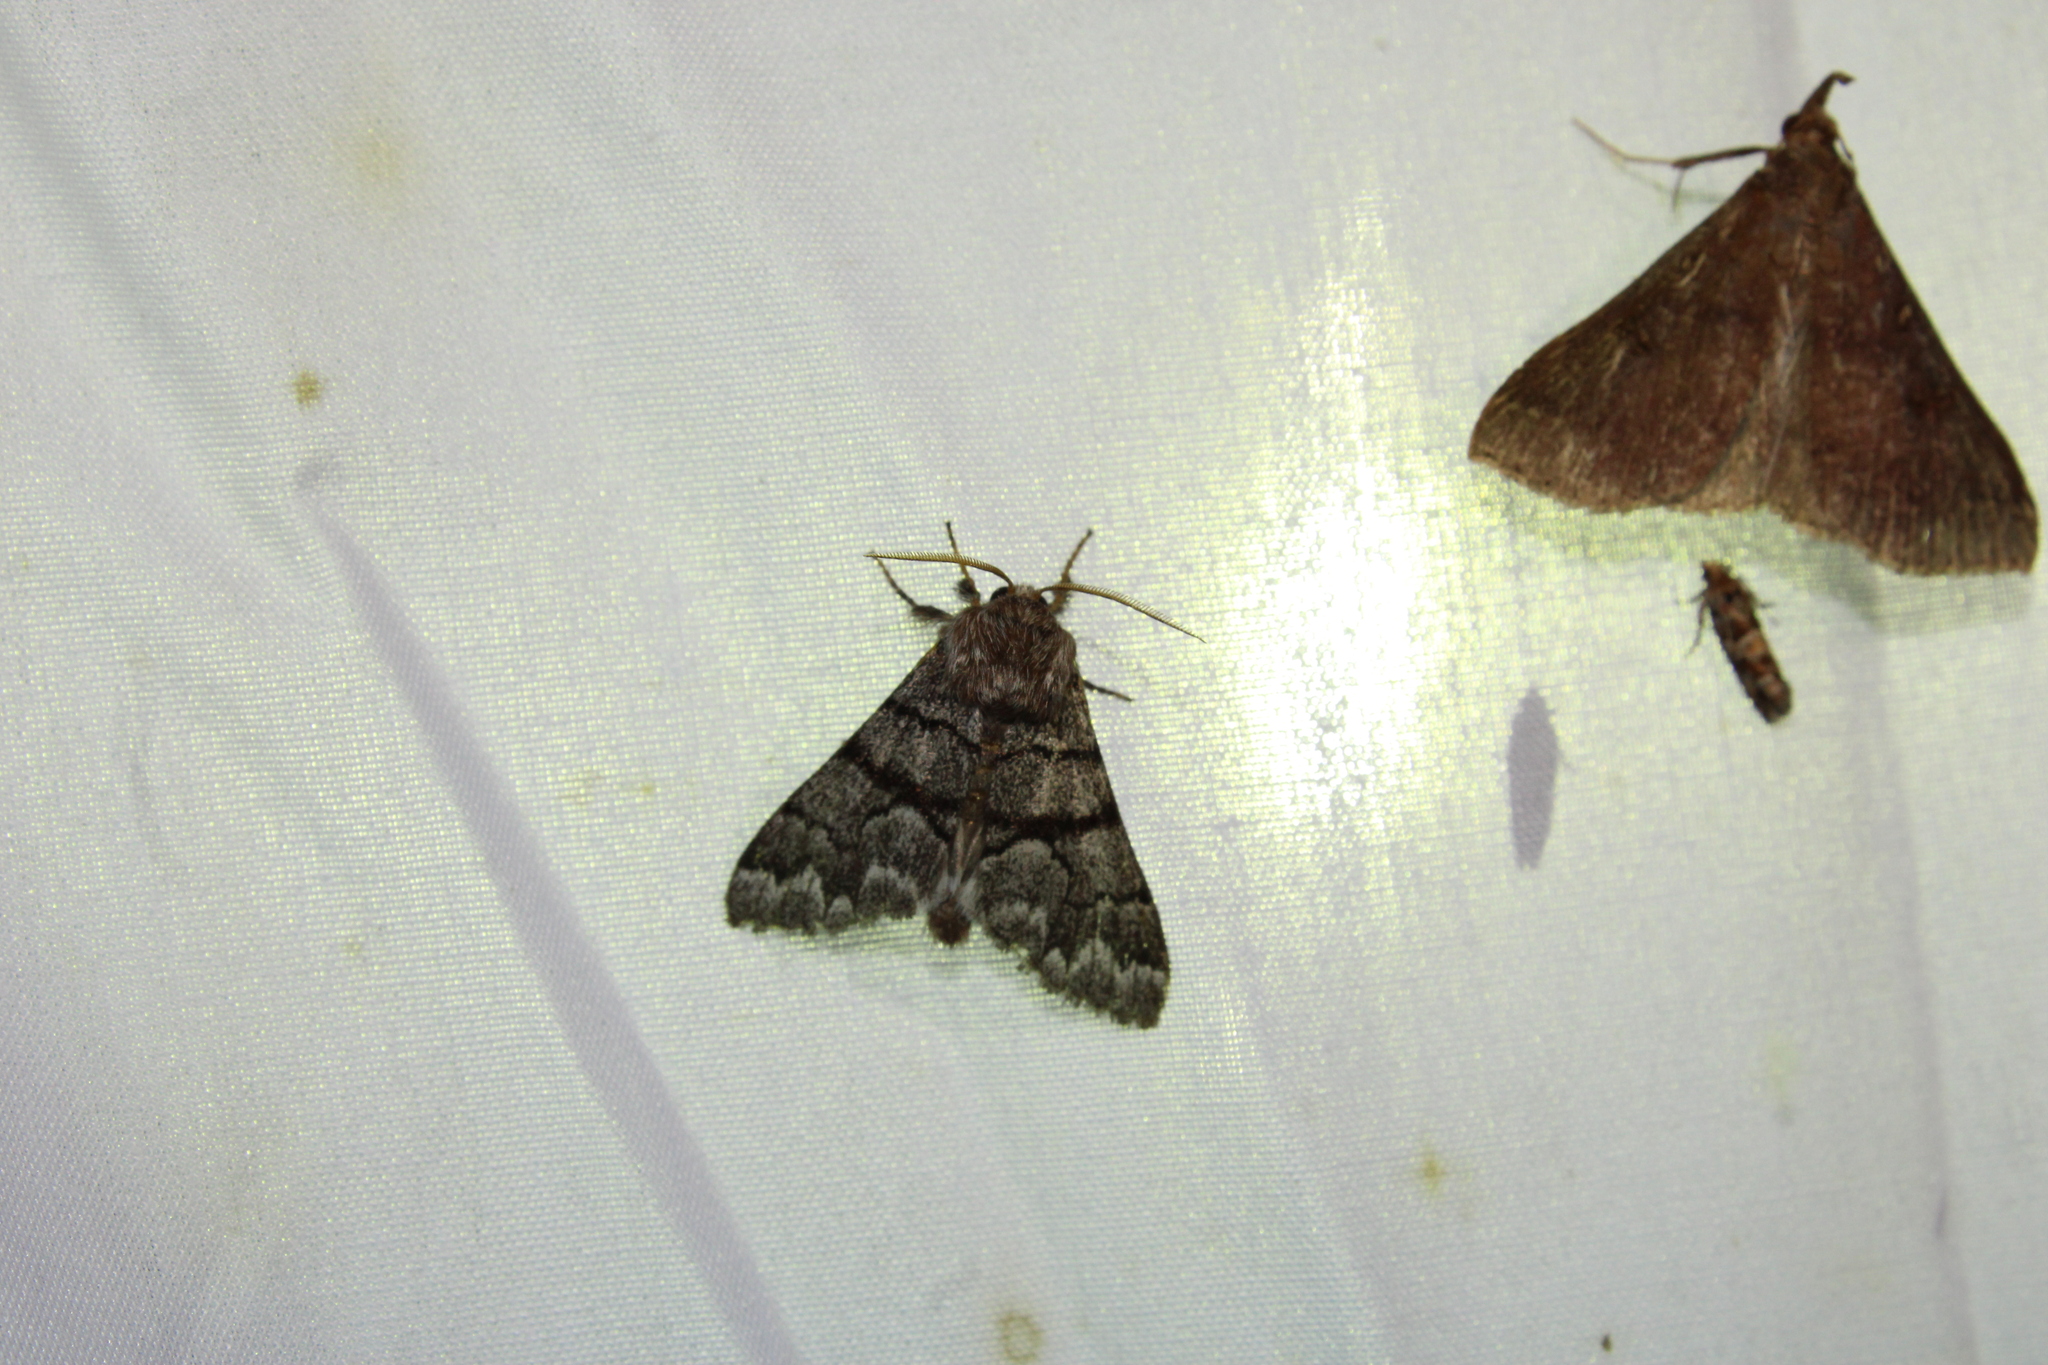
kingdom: Animalia
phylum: Arthropoda
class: Insecta
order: Lepidoptera
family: Noctuidae
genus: Panthea
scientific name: Panthea furcilla
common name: Eastern panthea moth
